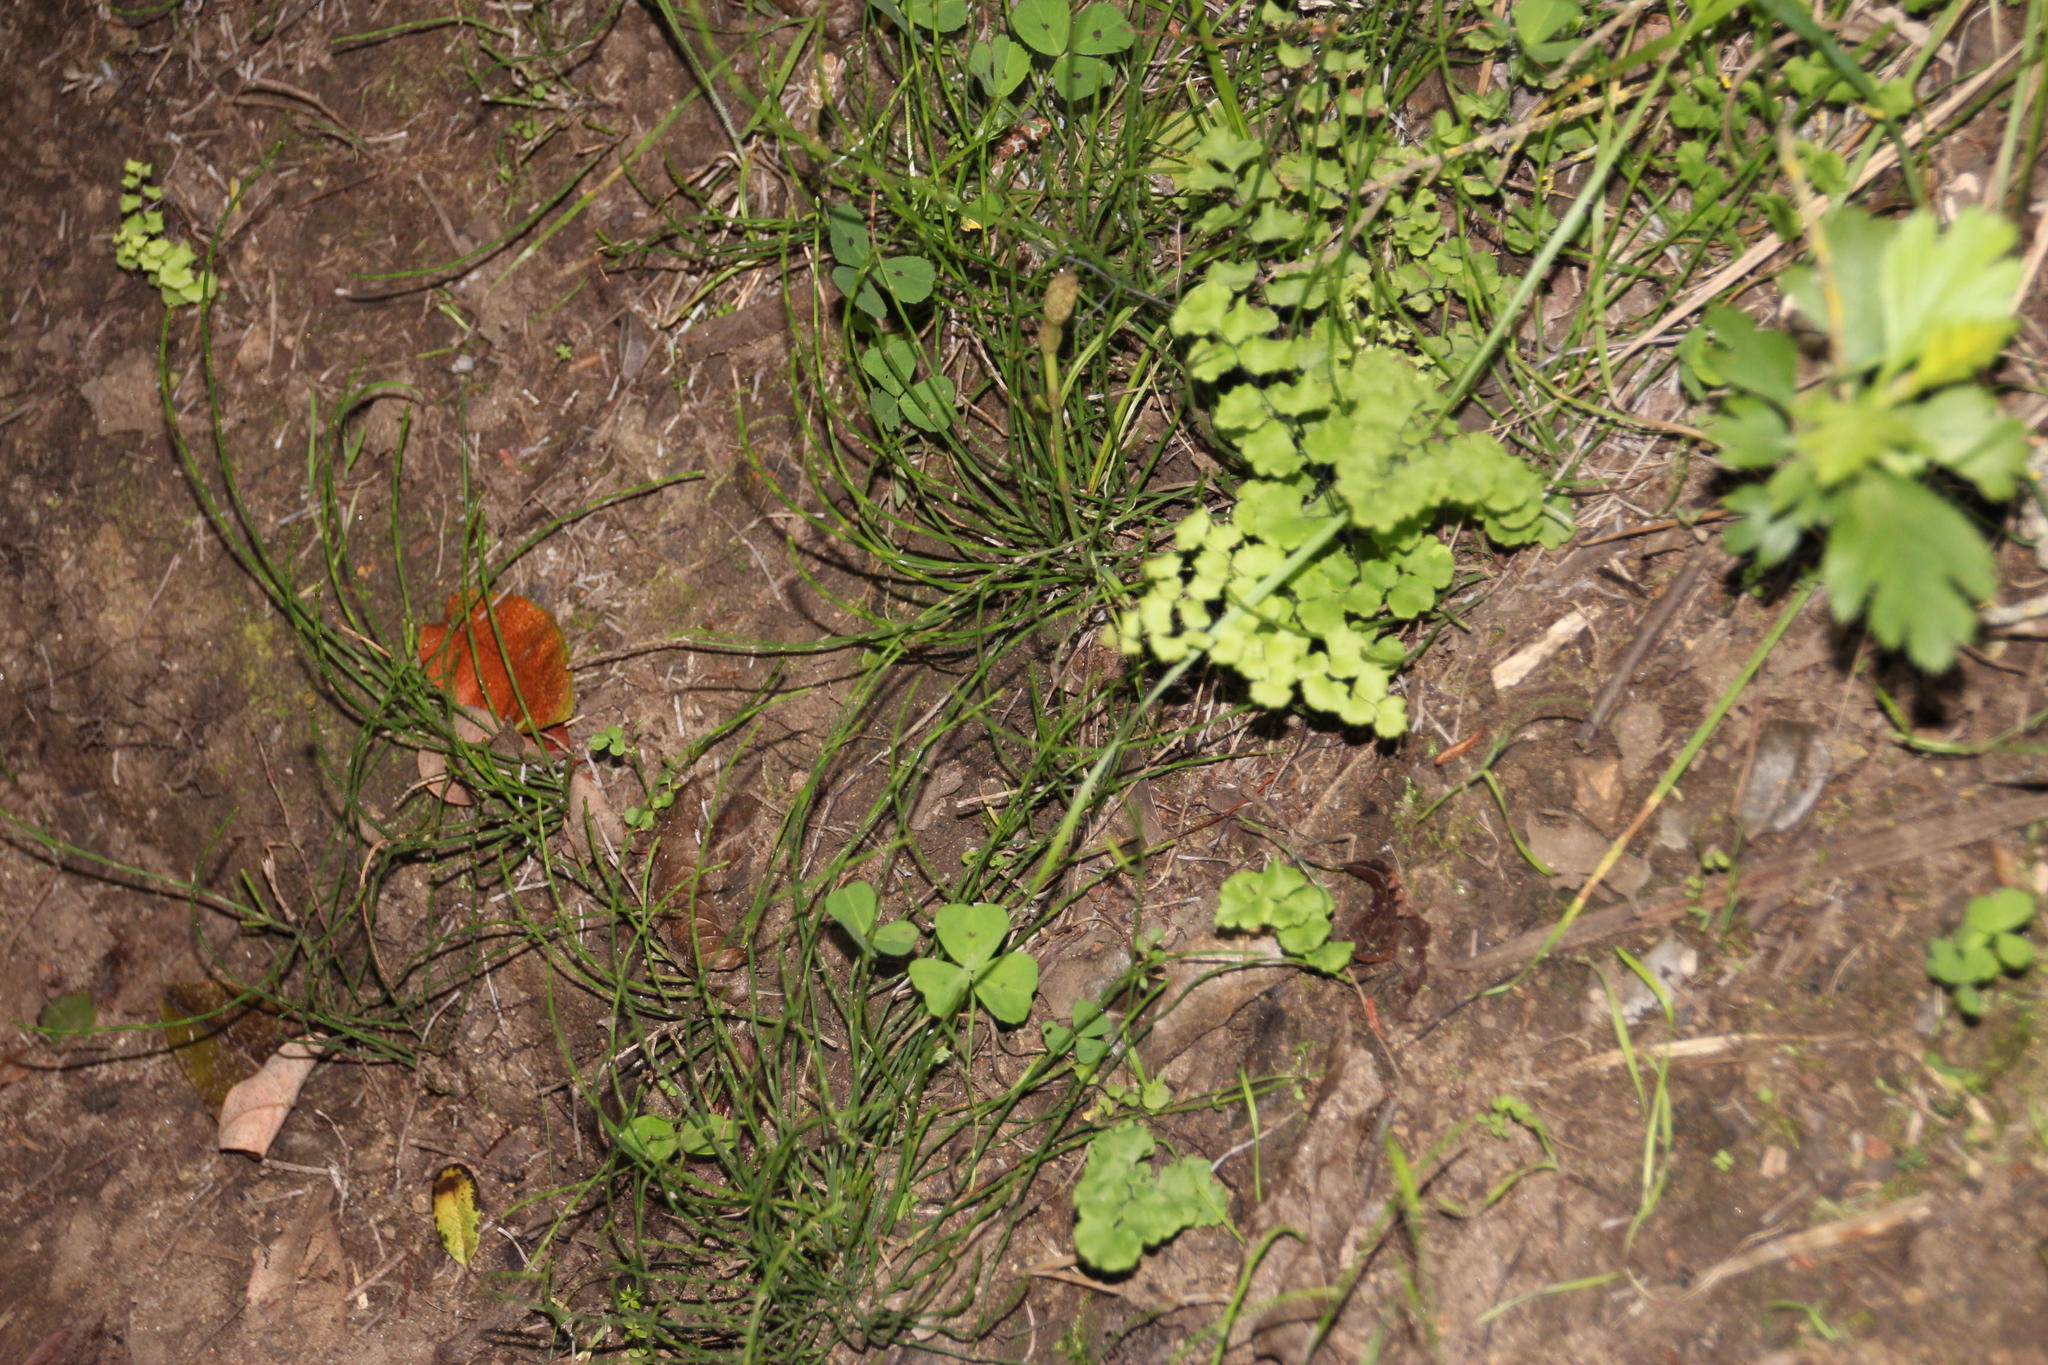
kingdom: Plantae
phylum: Tracheophyta
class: Polypodiopsida
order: Equisetales
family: Equisetaceae
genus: Equisetum
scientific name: Equisetum bogotense
